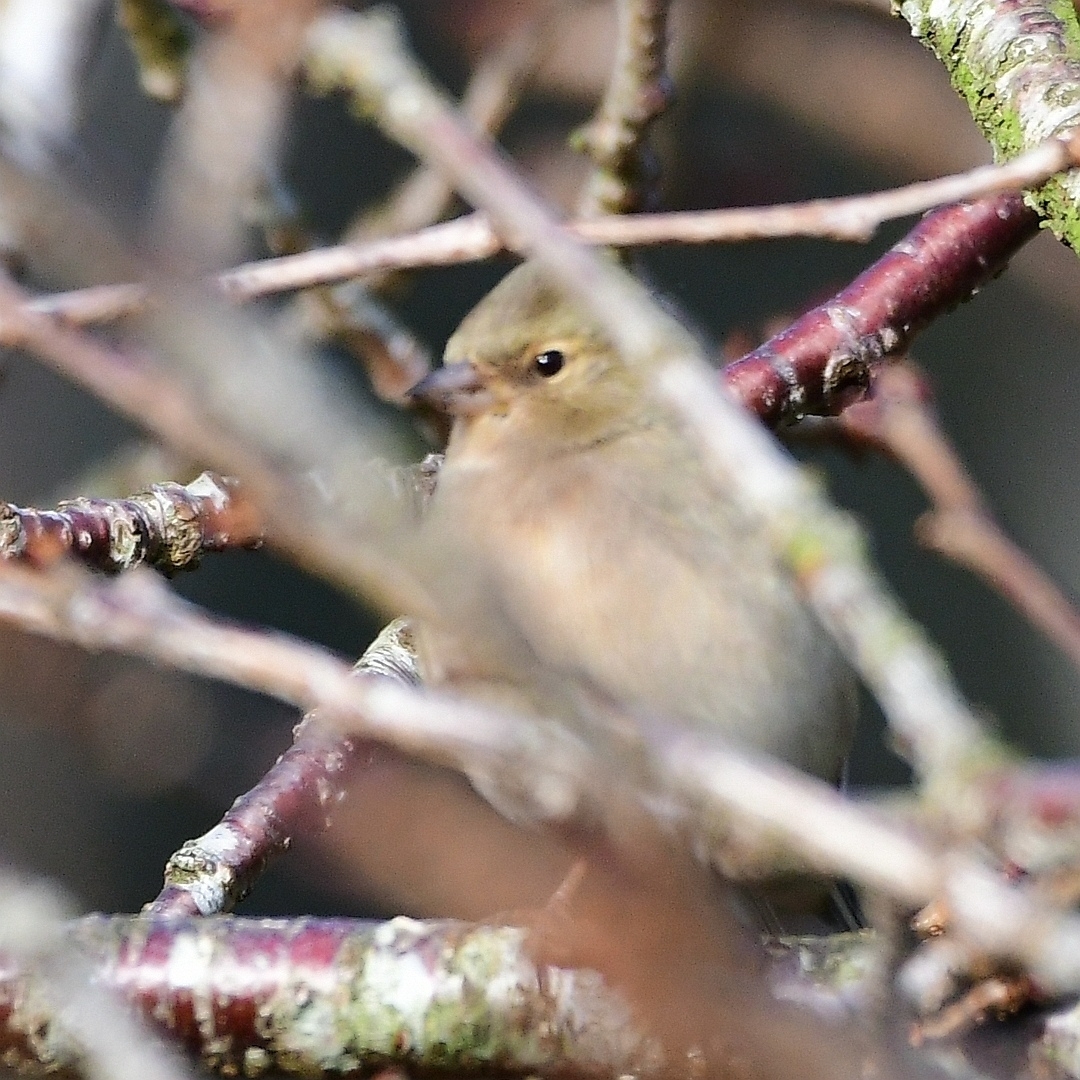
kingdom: Animalia
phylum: Chordata
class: Aves
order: Passeriformes
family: Fringillidae
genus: Fringilla
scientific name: Fringilla coelebs
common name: Common chaffinch
